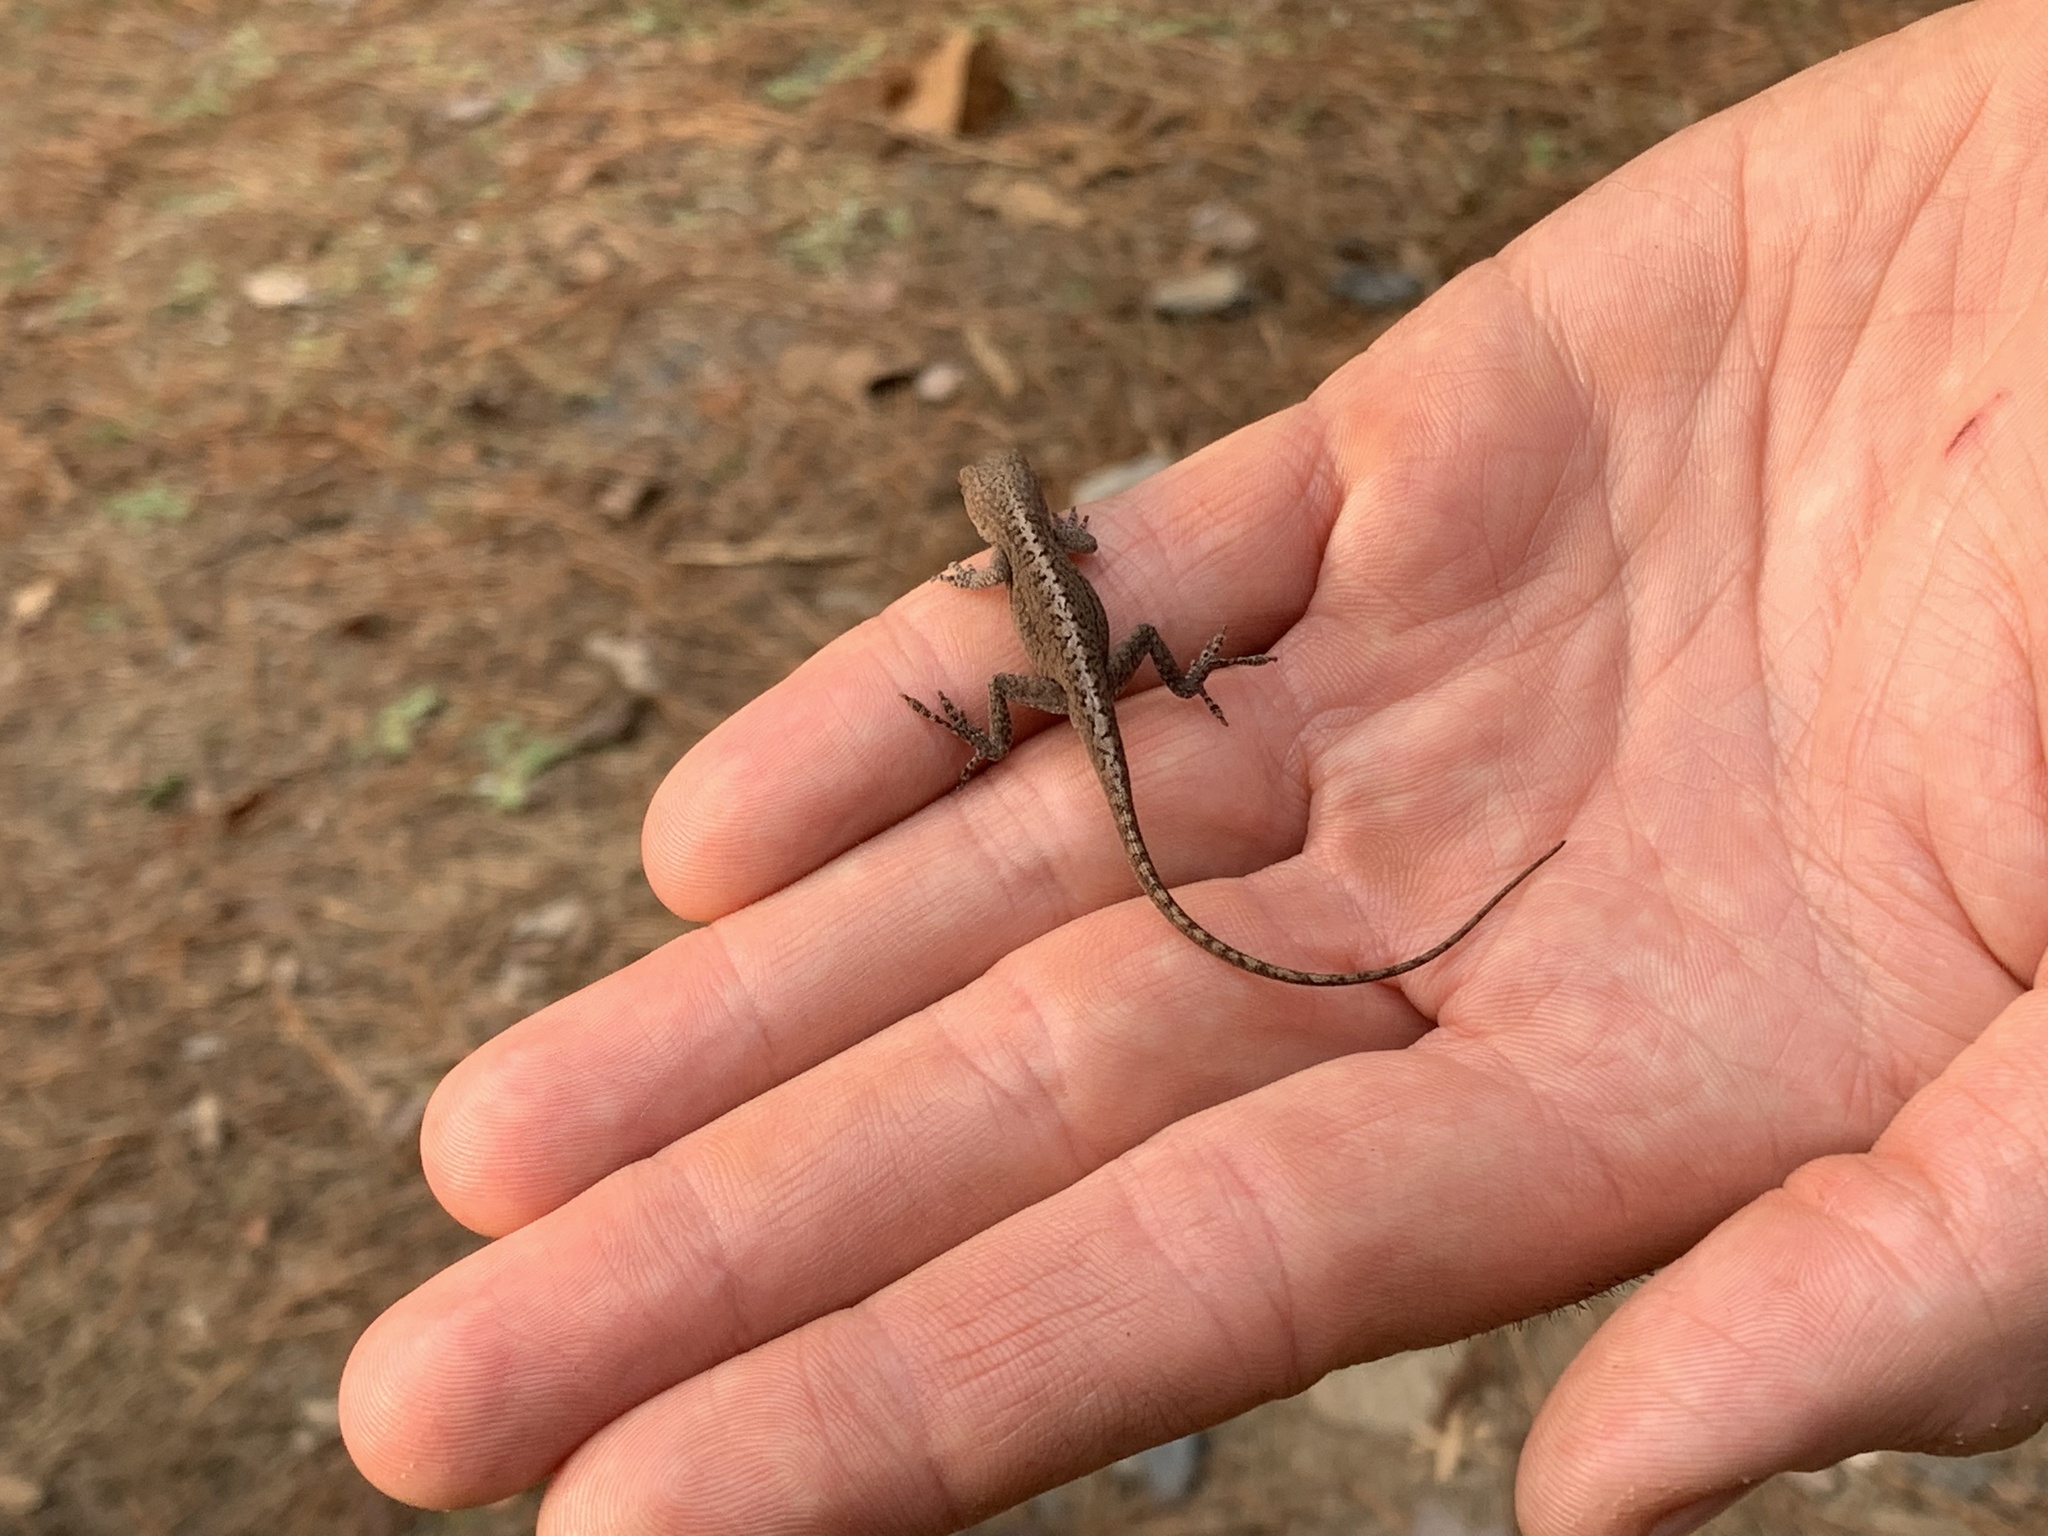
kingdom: Animalia
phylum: Chordata
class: Squamata
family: Dactyloidae
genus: Anolis
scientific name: Anolis carolinensis
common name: Green anole
